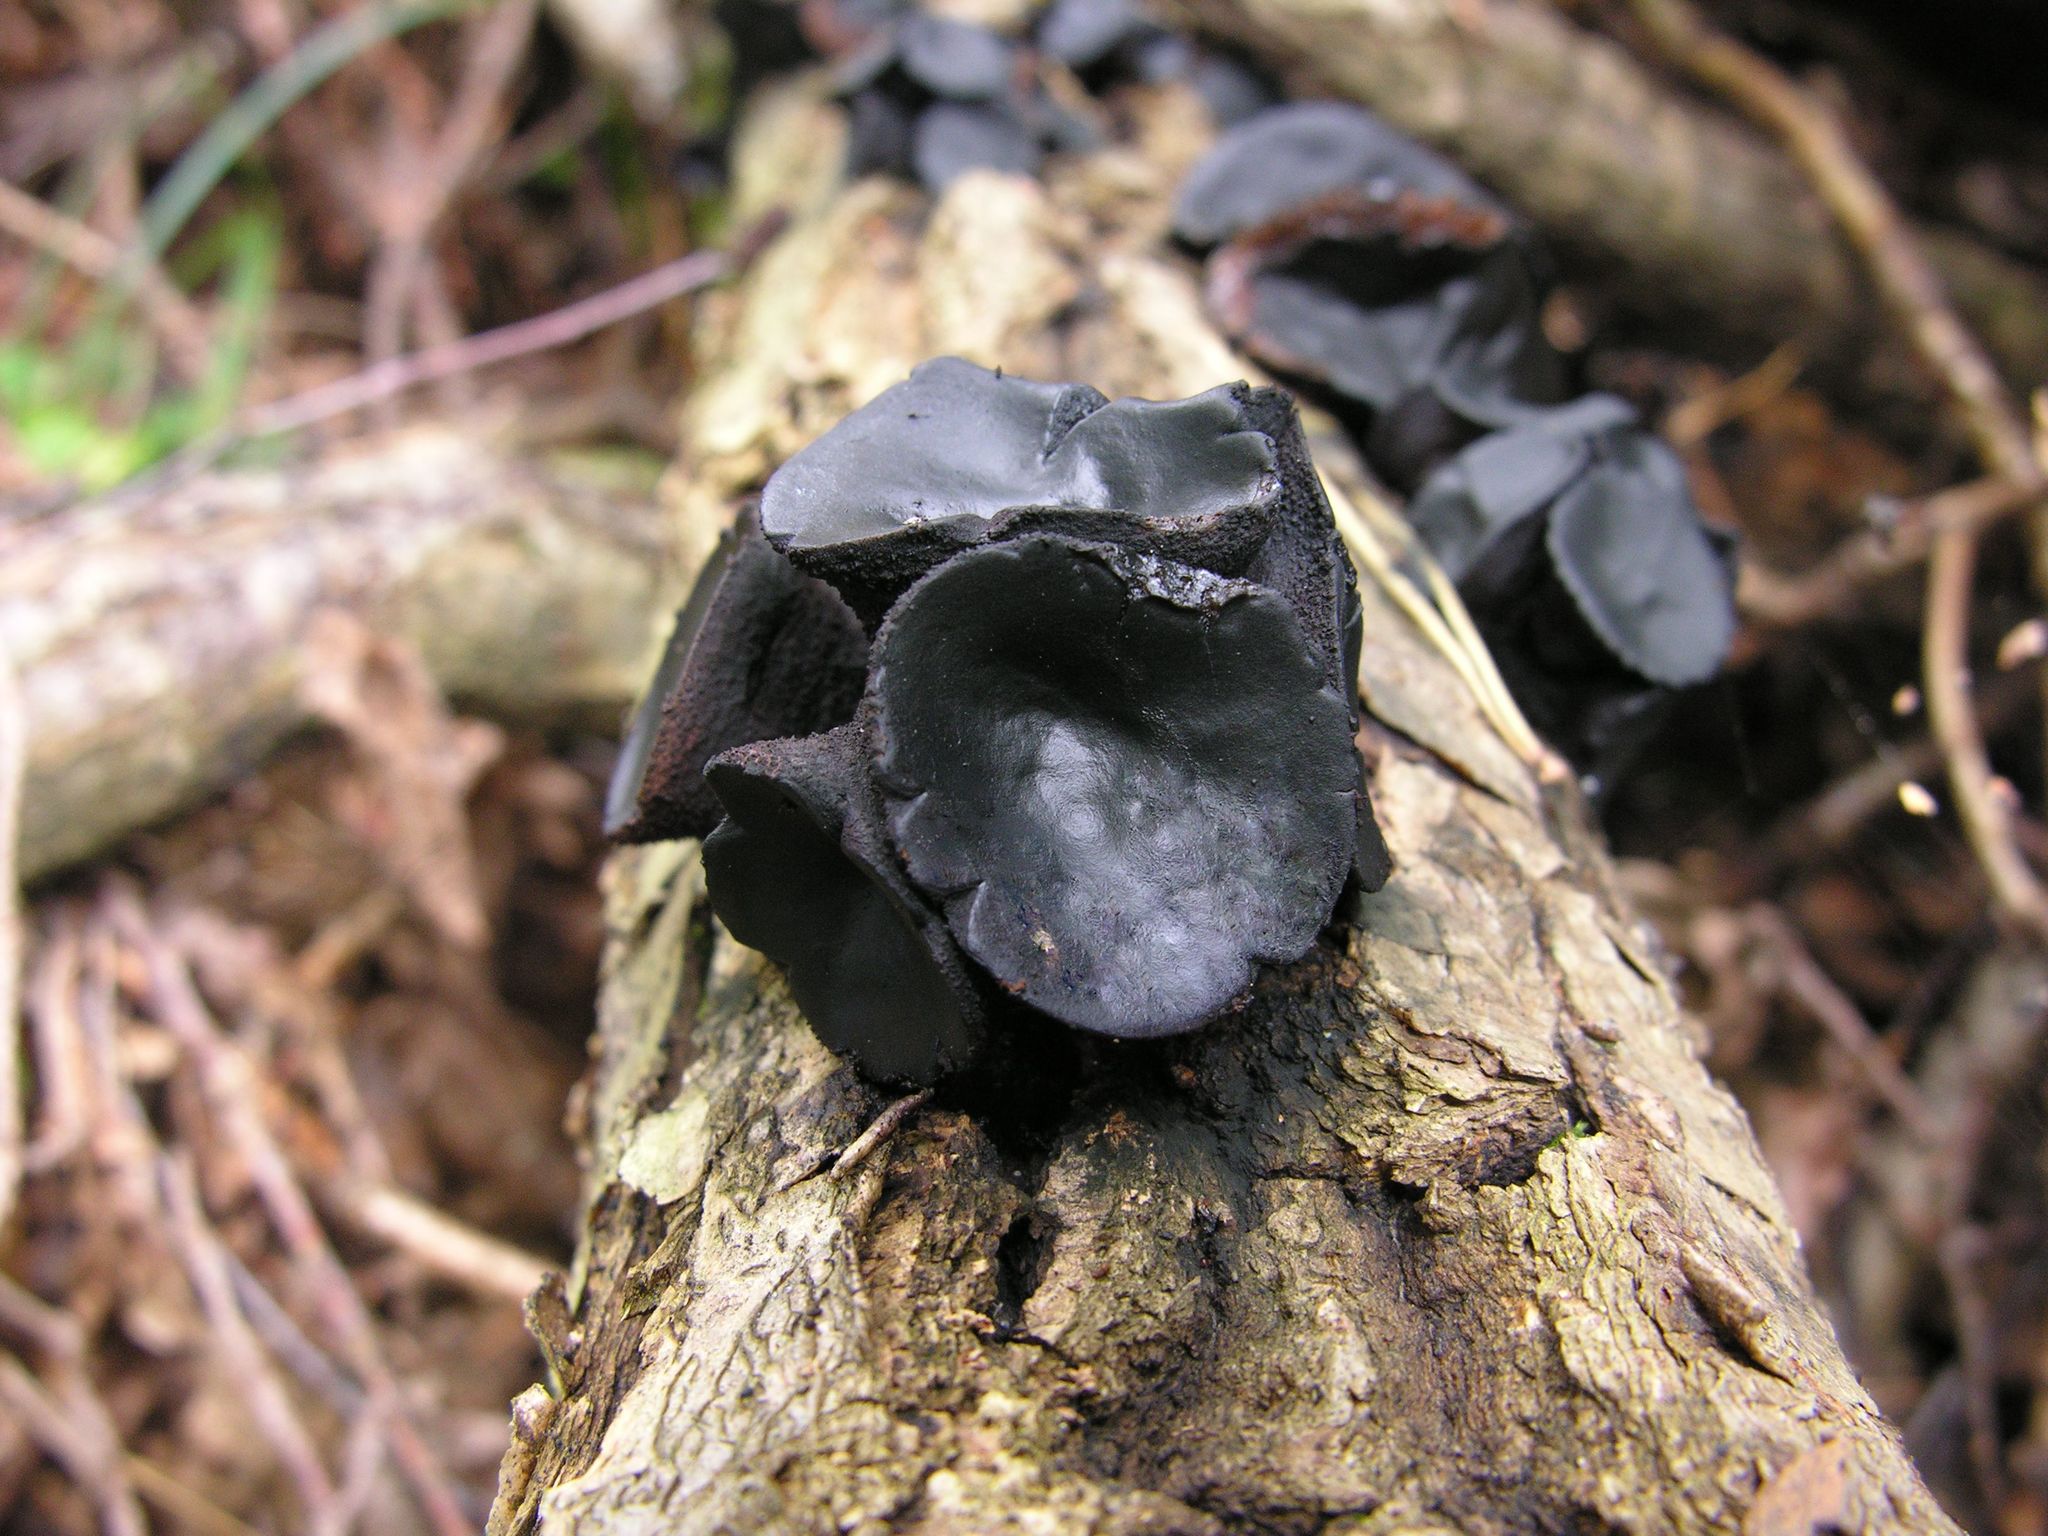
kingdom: Fungi
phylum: Ascomycota
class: Leotiomycetes
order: Phacidiales
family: Phacidiaceae
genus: Bulgaria
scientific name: Bulgaria inquinans
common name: Black bulgar
